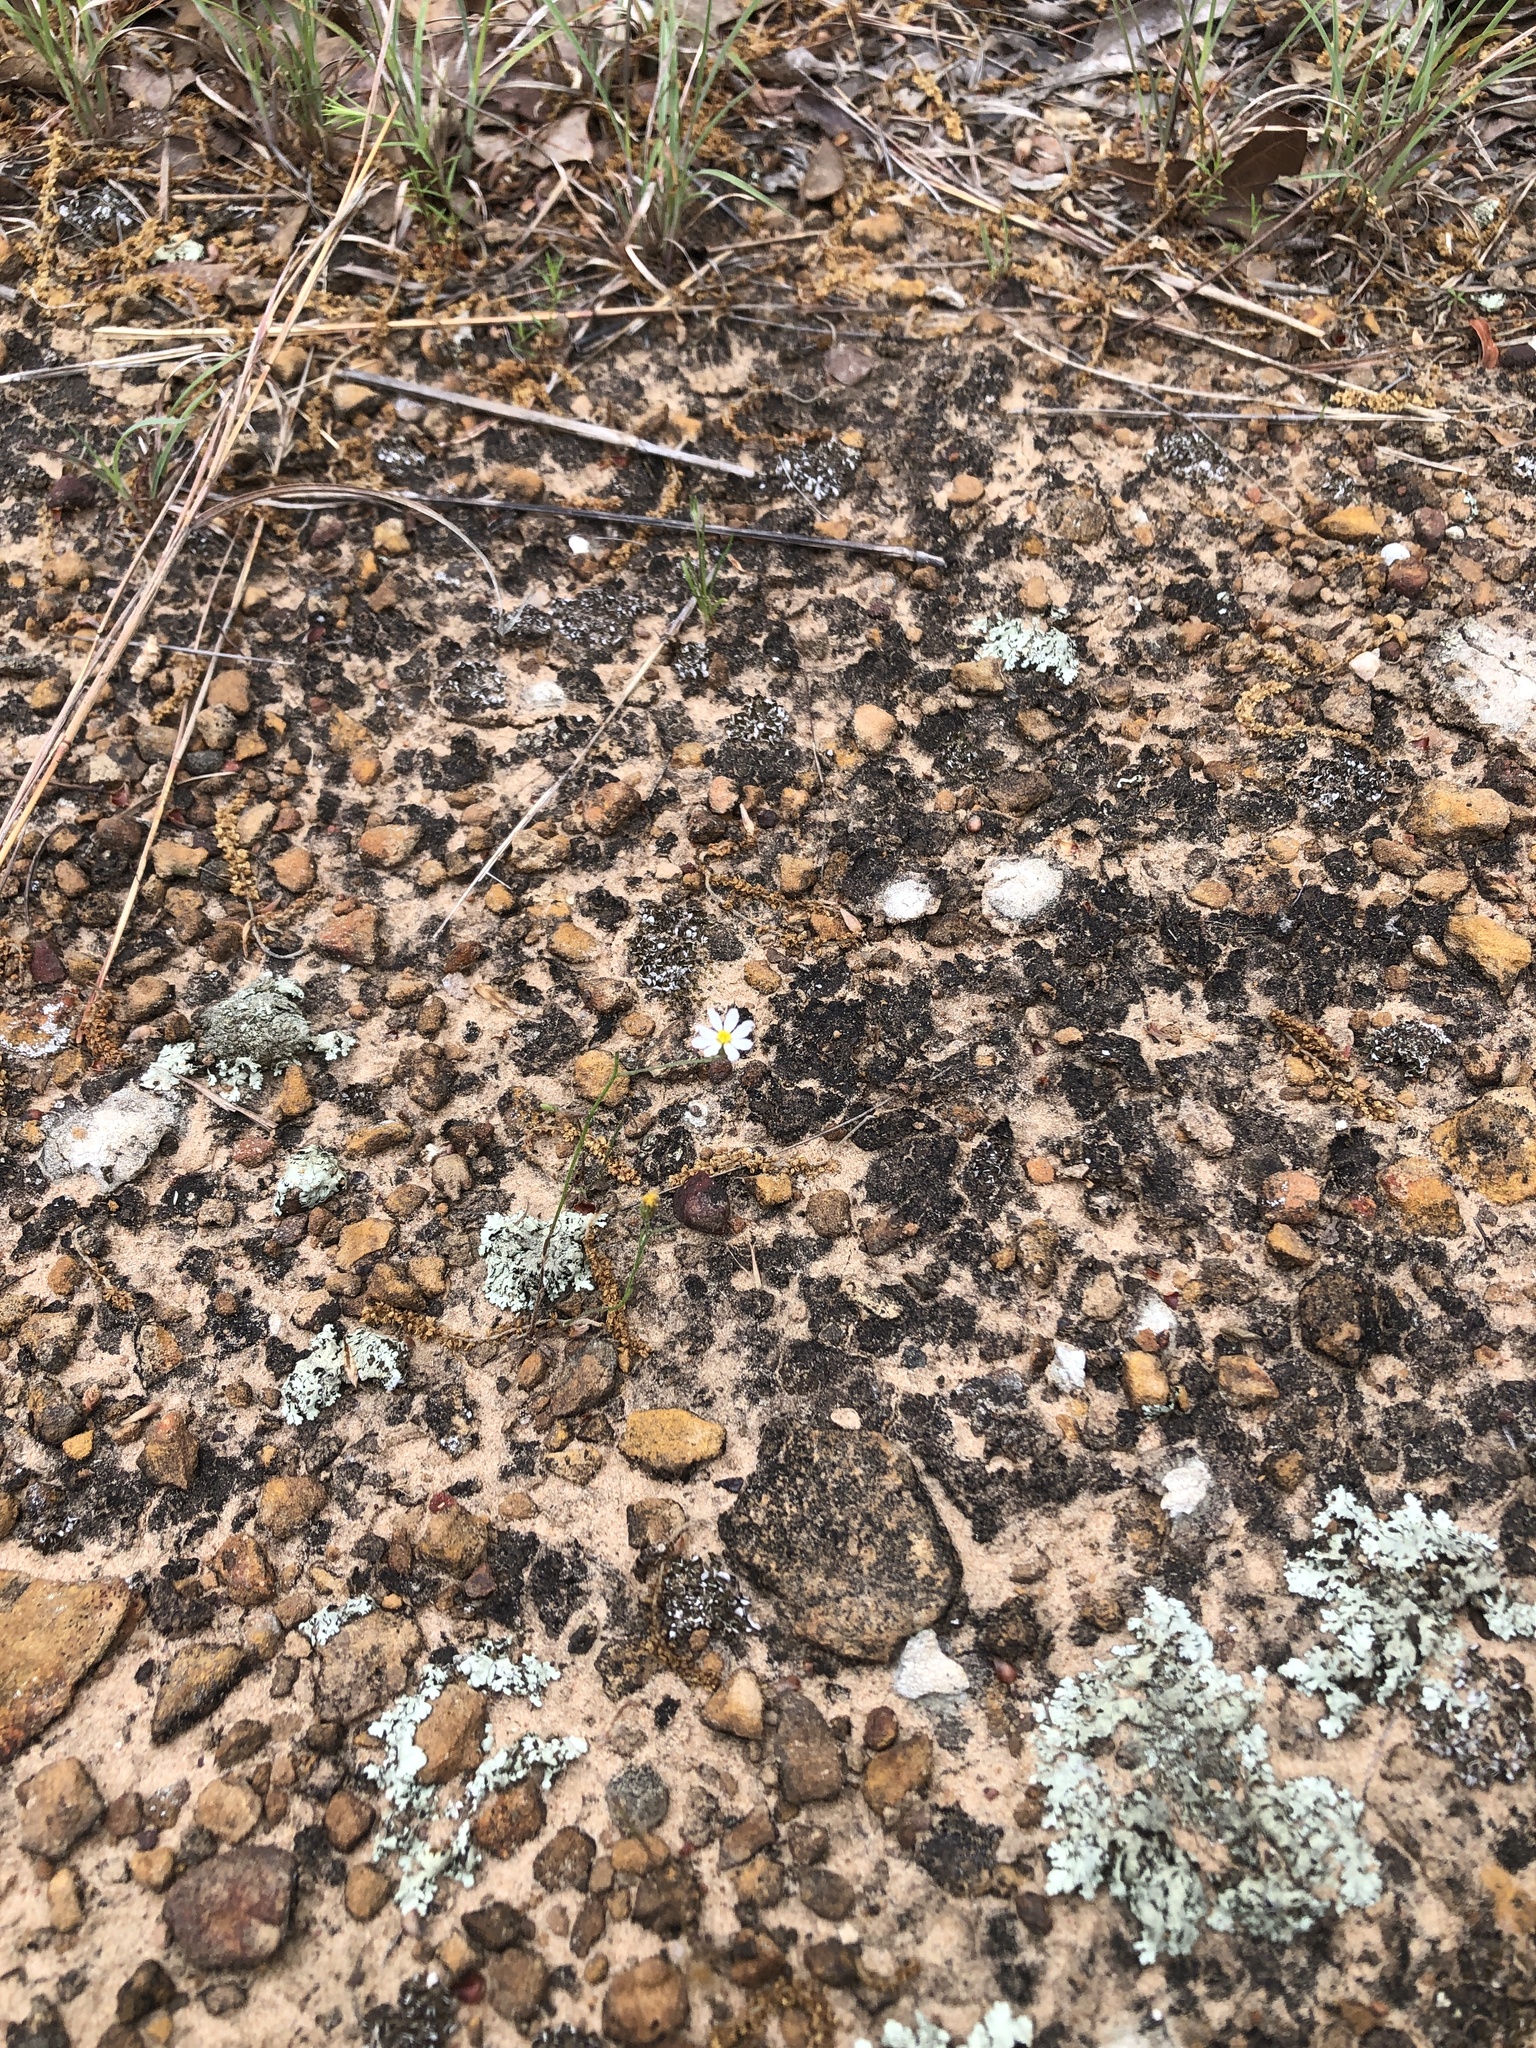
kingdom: Plantae
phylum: Tracheophyta
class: Magnoliopsida
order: Asterales
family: Asteraceae
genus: Chaetopappa
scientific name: Chaetopappa asteroides
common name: Tiny lazy daisy
